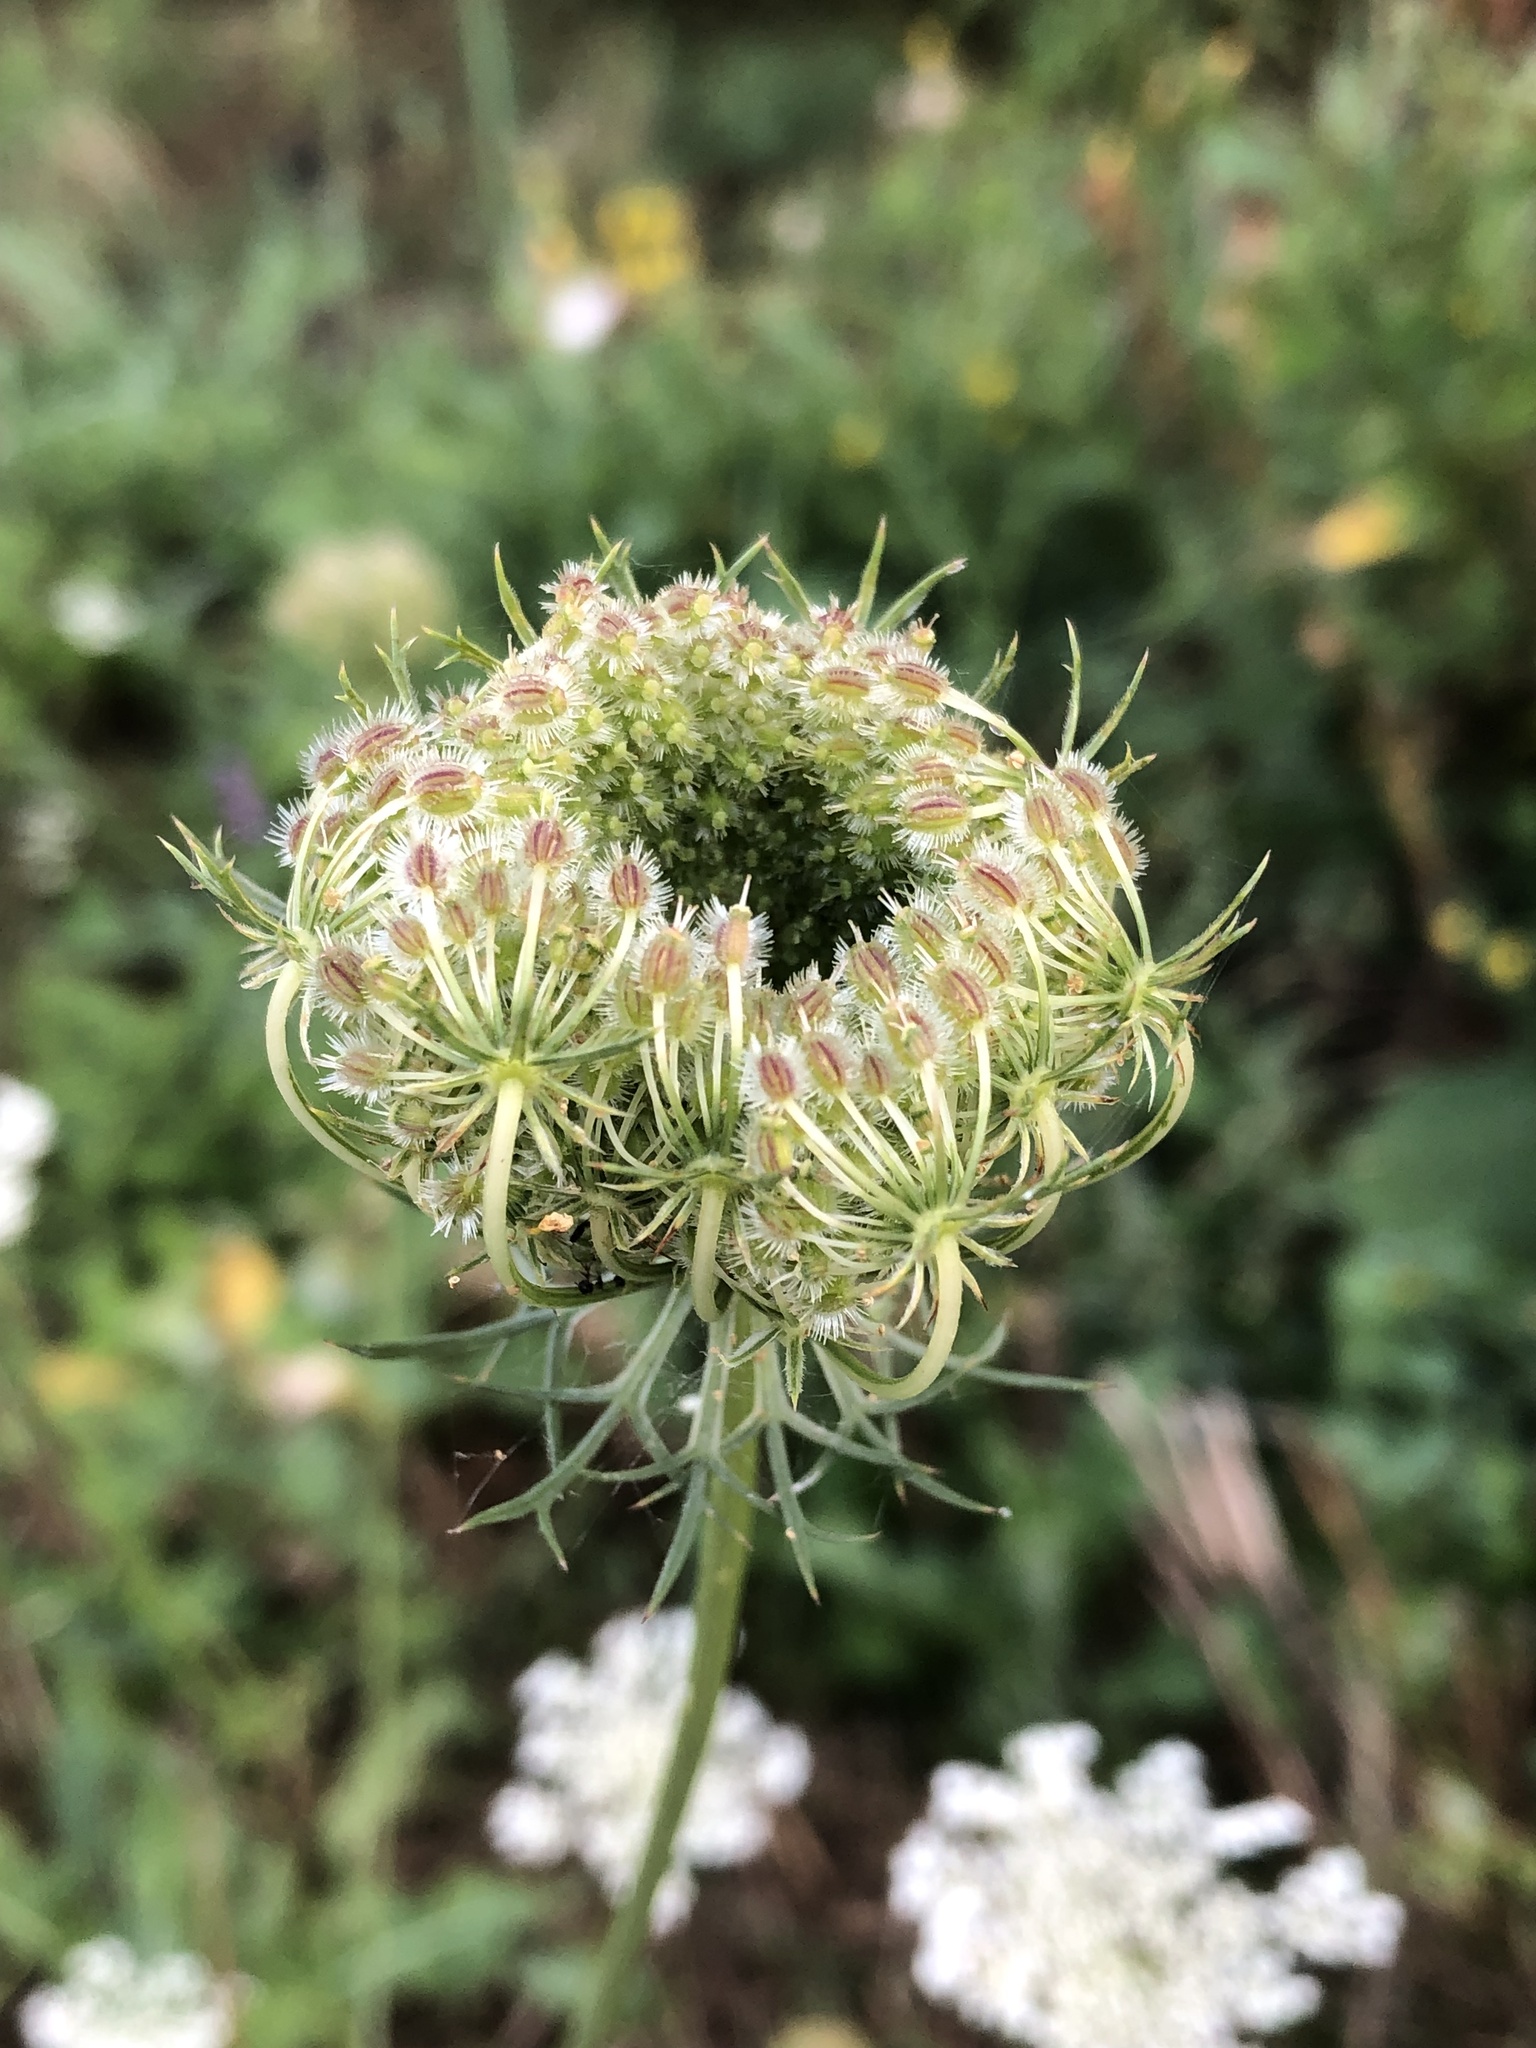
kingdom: Plantae
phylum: Tracheophyta
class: Magnoliopsida
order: Apiales
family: Apiaceae
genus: Daucus
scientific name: Daucus carota
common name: Wild carrot
